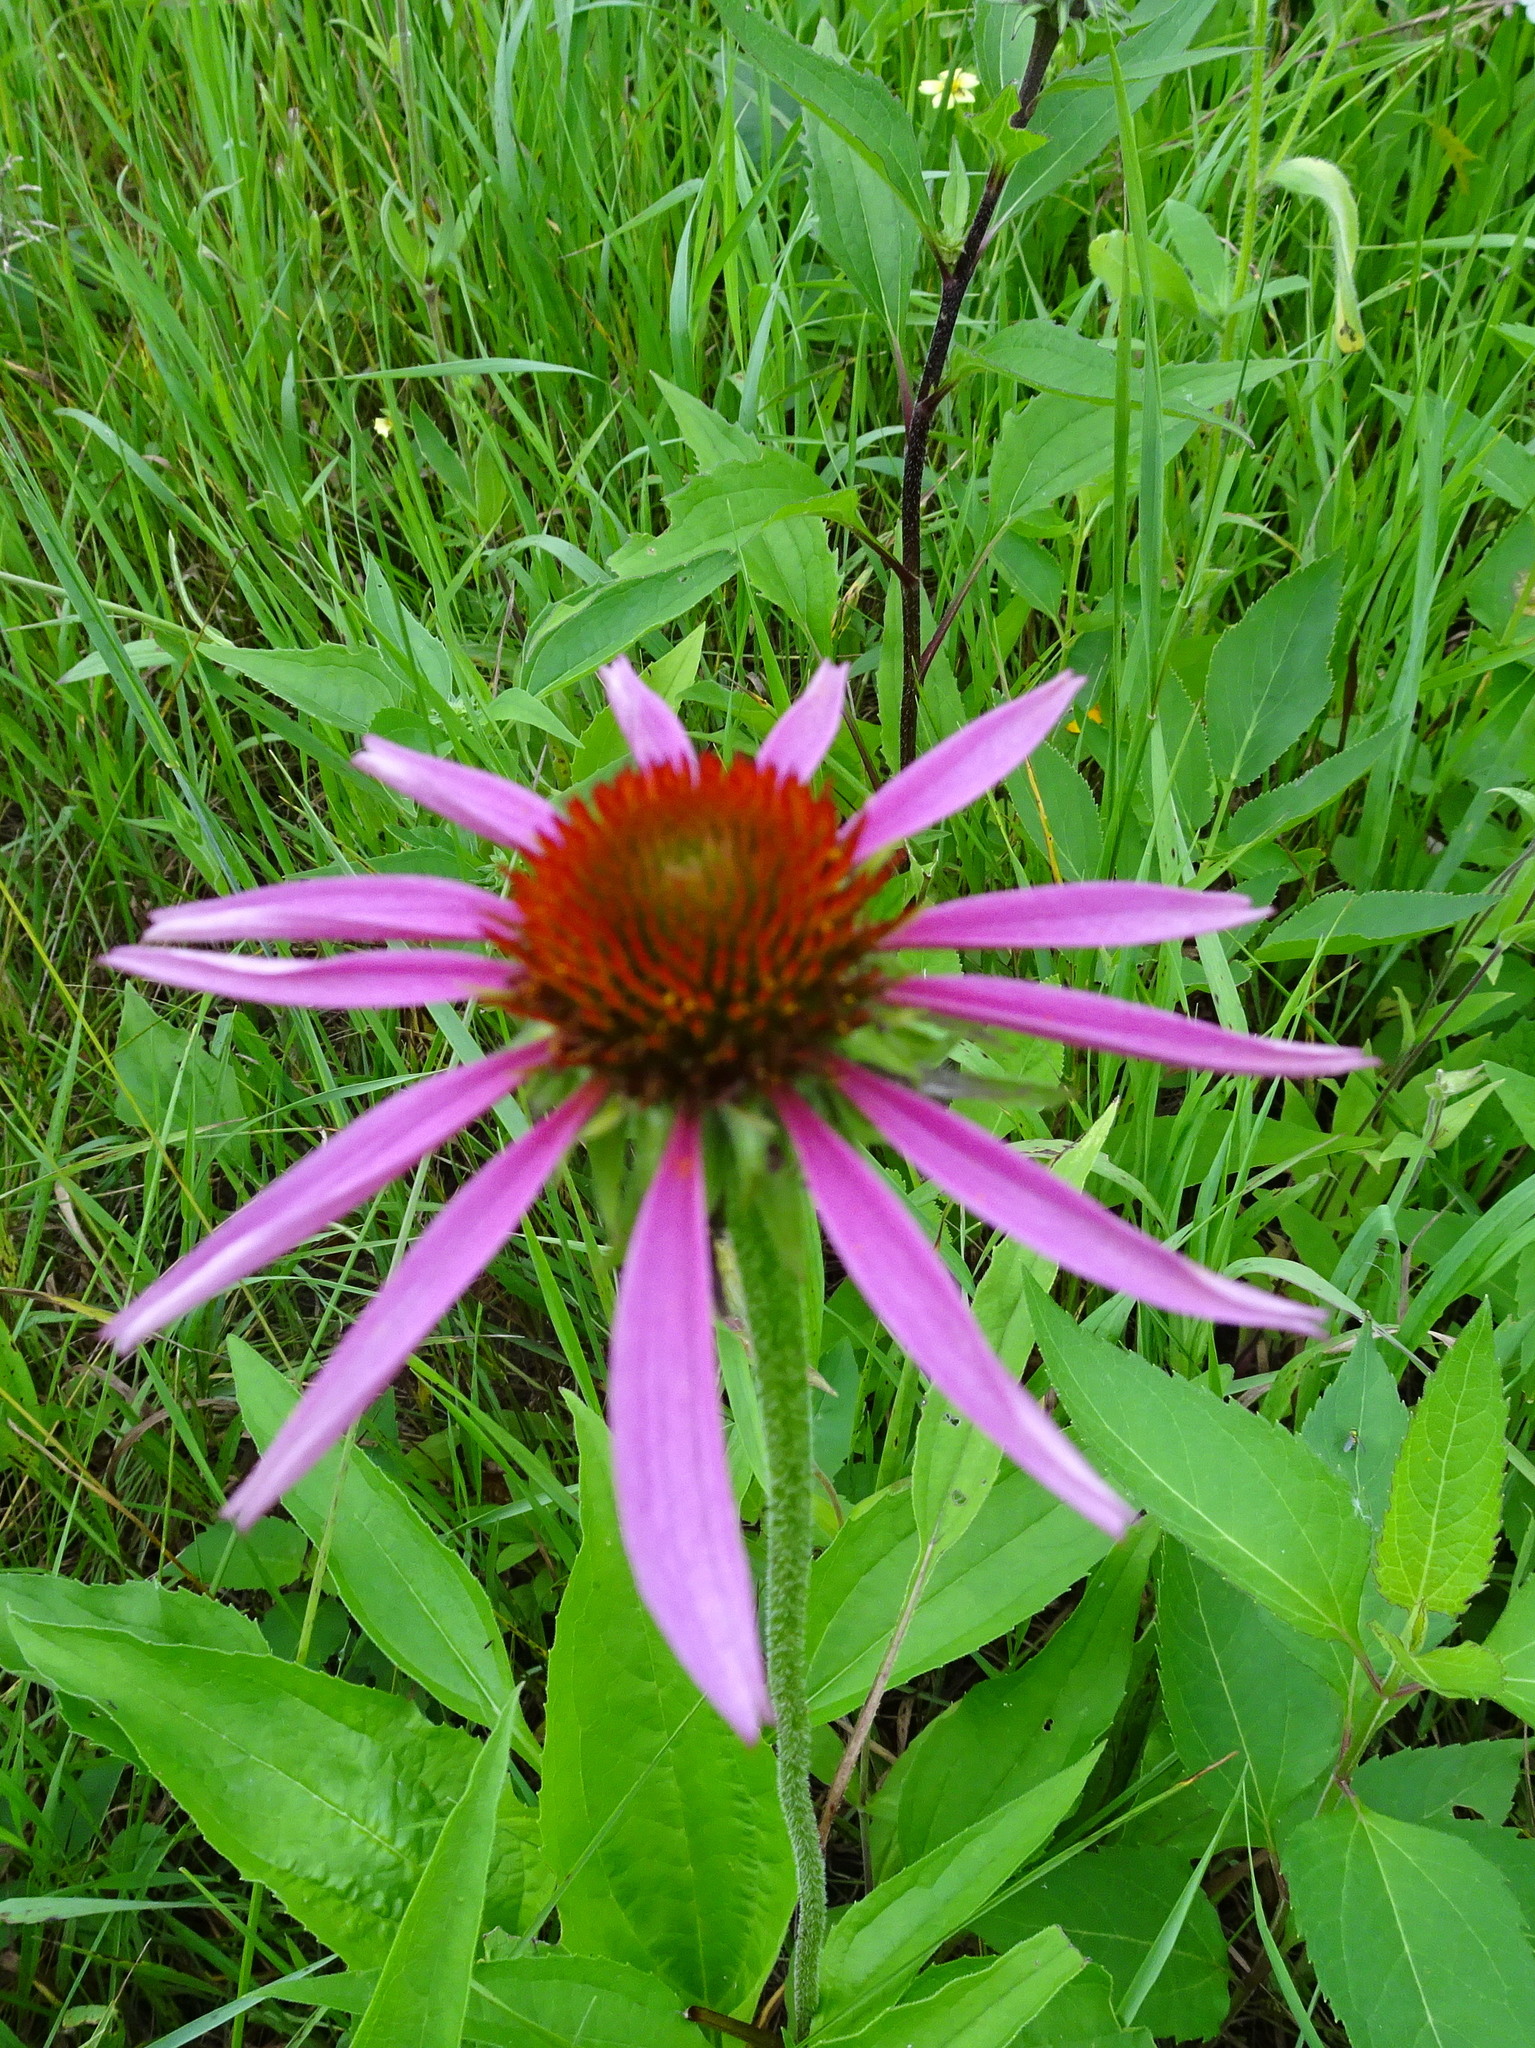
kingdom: Plantae
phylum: Tracheophyta
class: Magnoliopsida
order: Asterales
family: Asteraceae
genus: Echinacea
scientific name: Echinacea purpurea
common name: Broad-leaved purple coneflower
